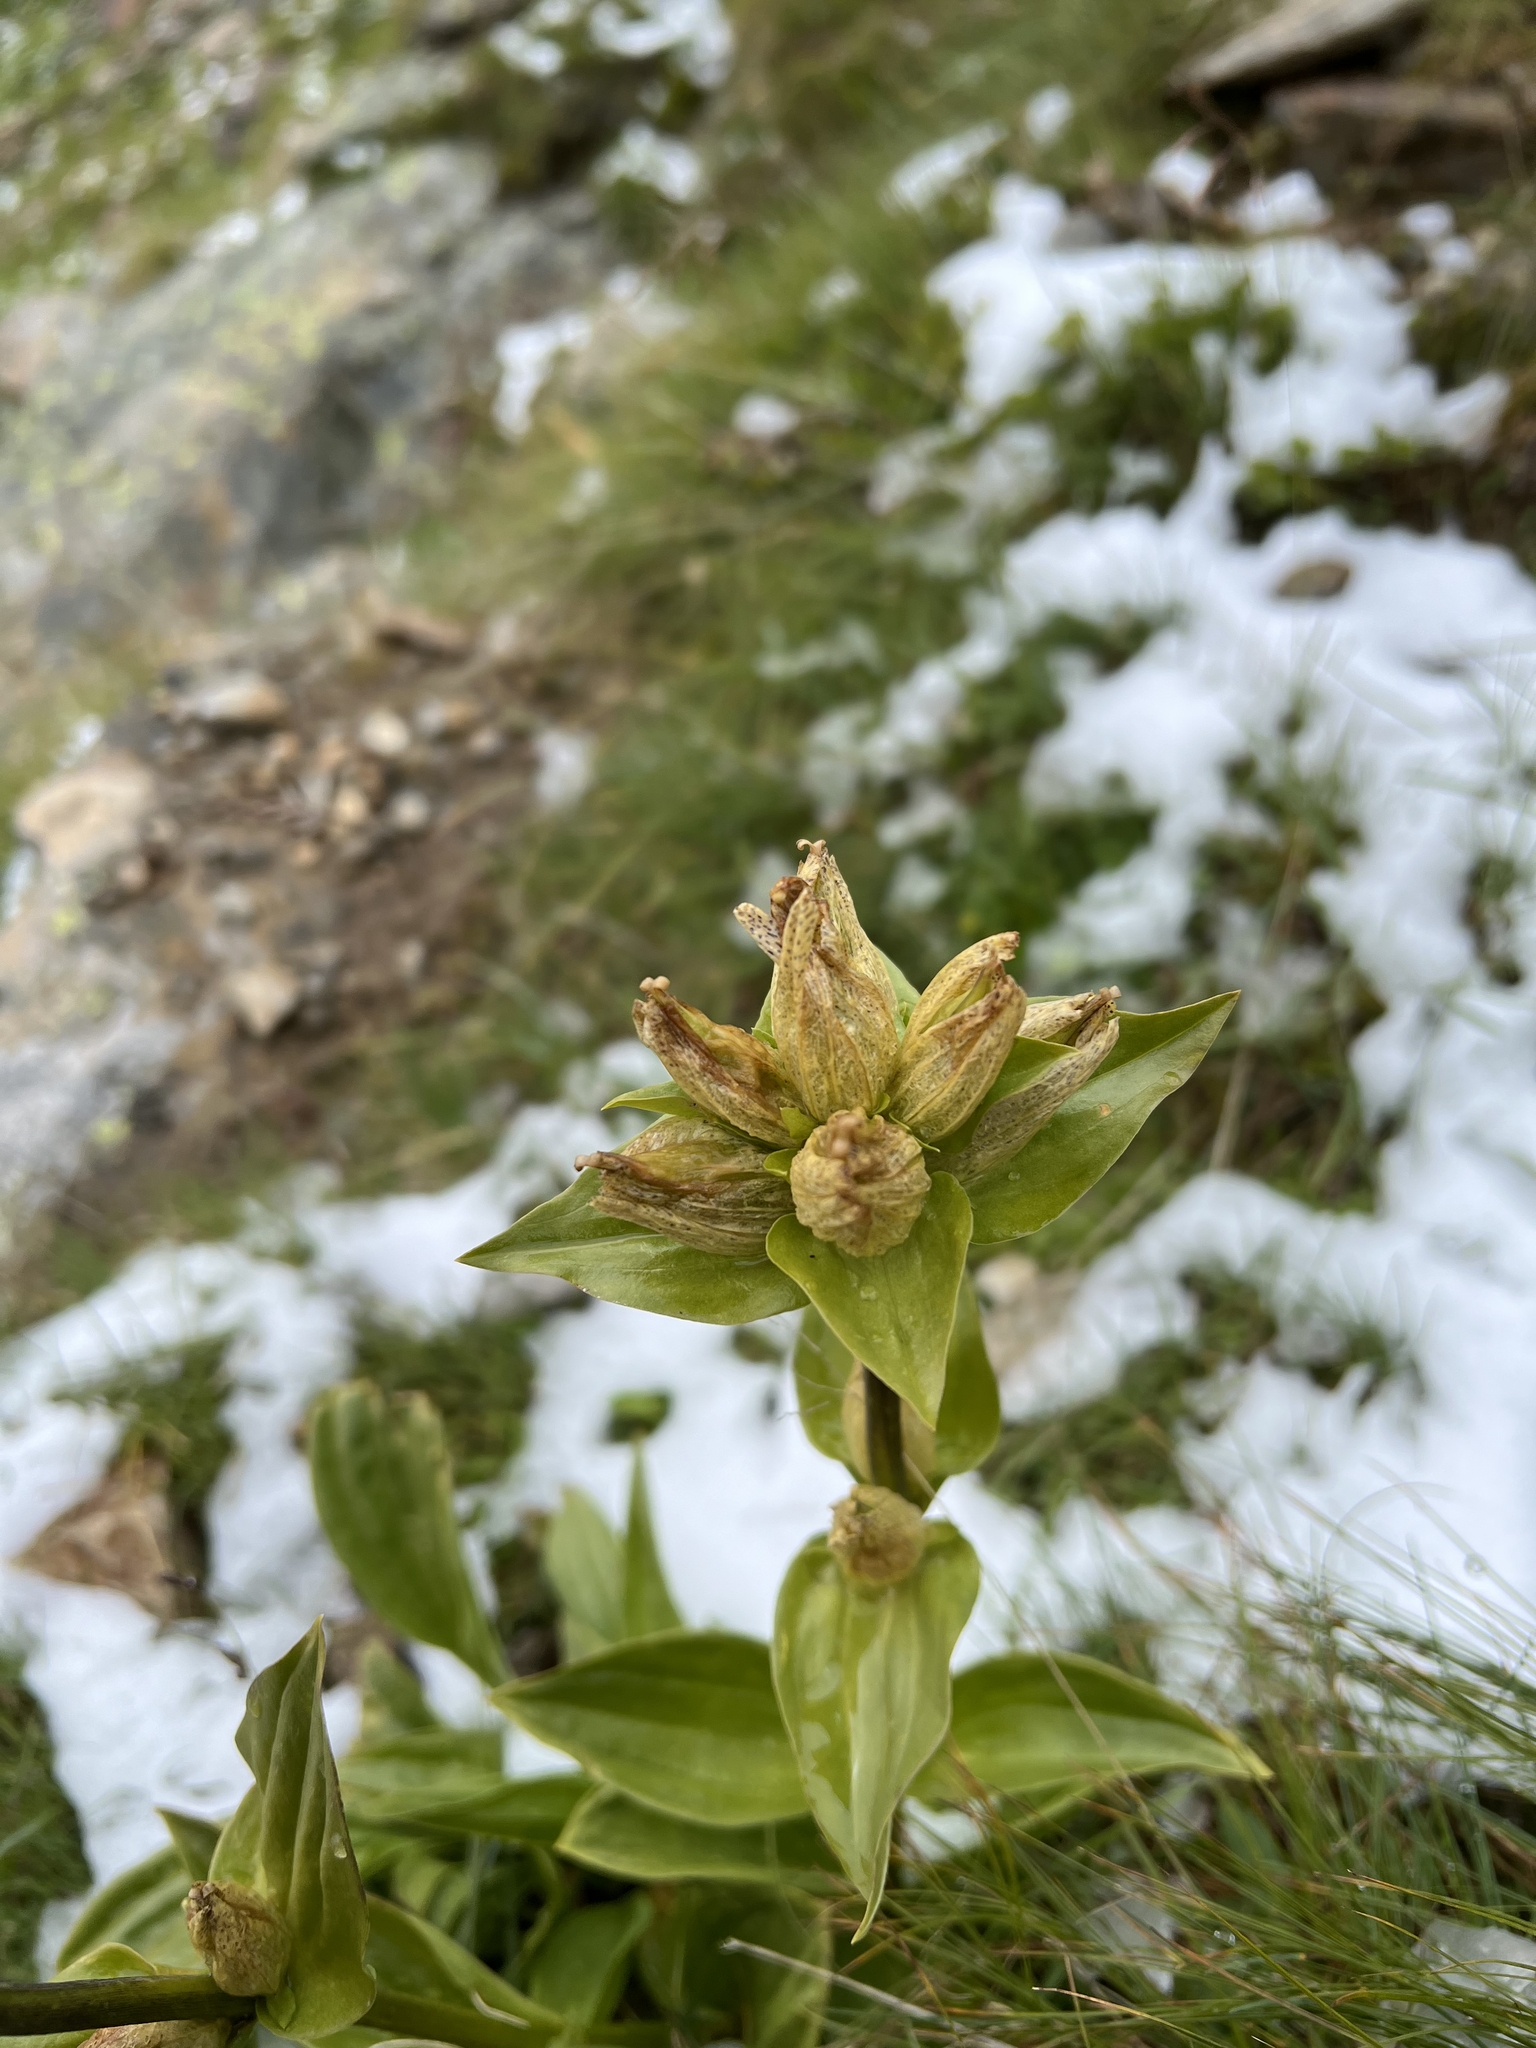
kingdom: Plantae
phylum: Tracheophyta
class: Magnoliopsida
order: Gentianales
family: Gentianaceae
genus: Gentiana
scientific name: Gentiana punctata
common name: Spotted gentian
